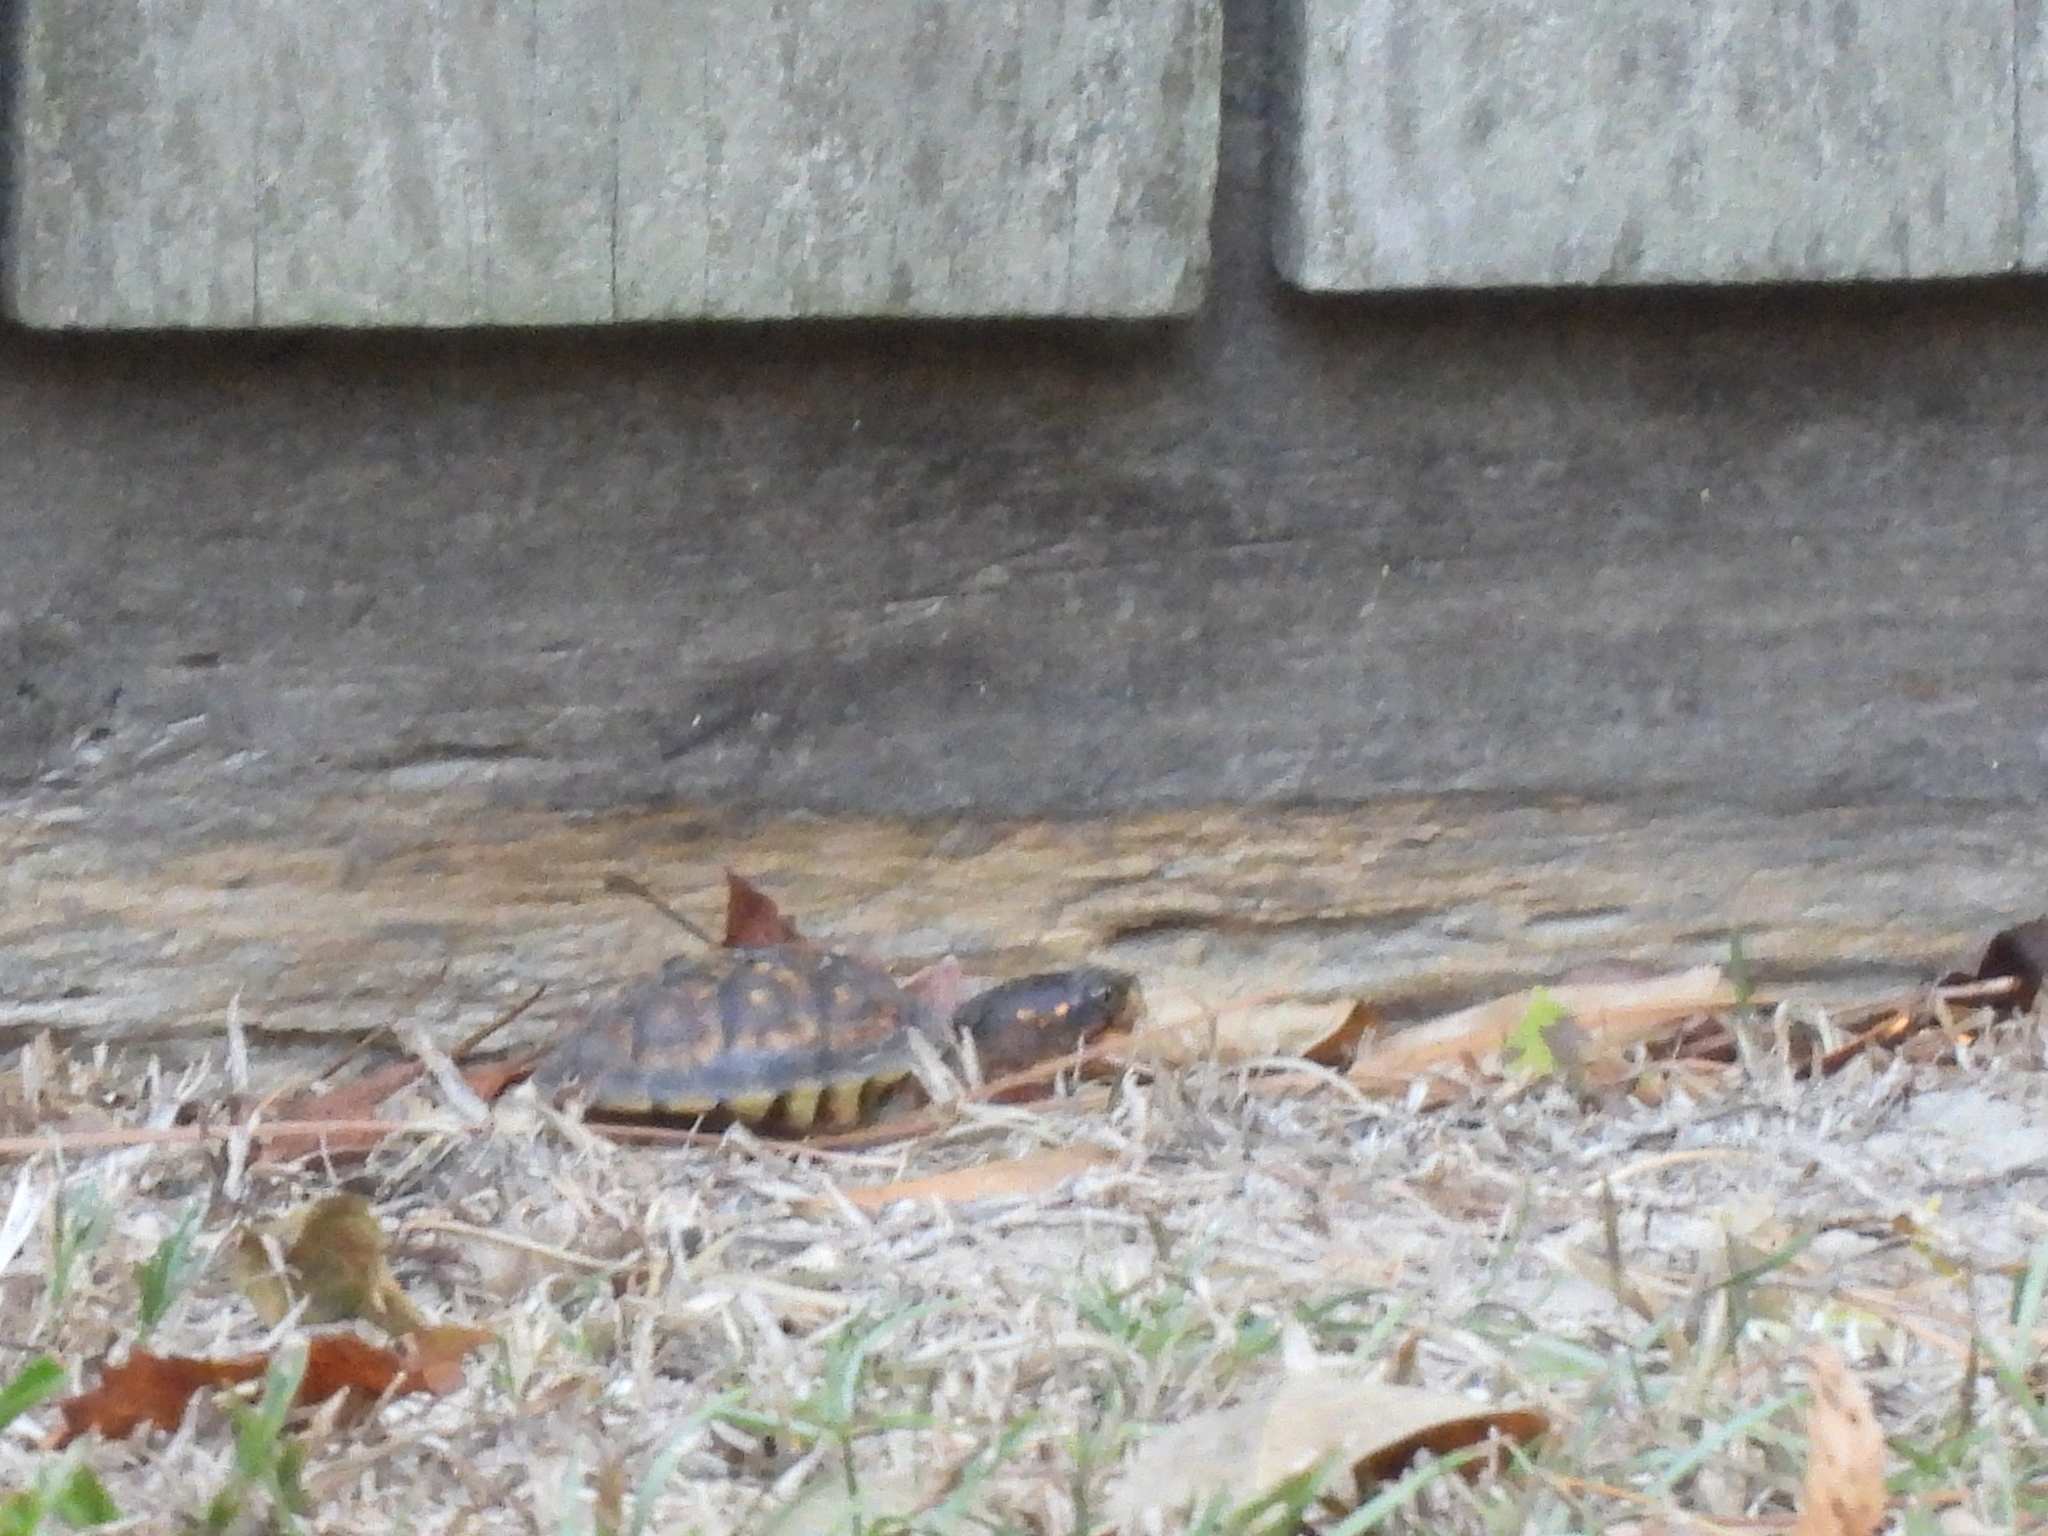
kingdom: Animalia
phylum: Chordata
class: Testudines
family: Emydidae
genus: Terrapene
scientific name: Terrapene carolina
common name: Common box turtle
